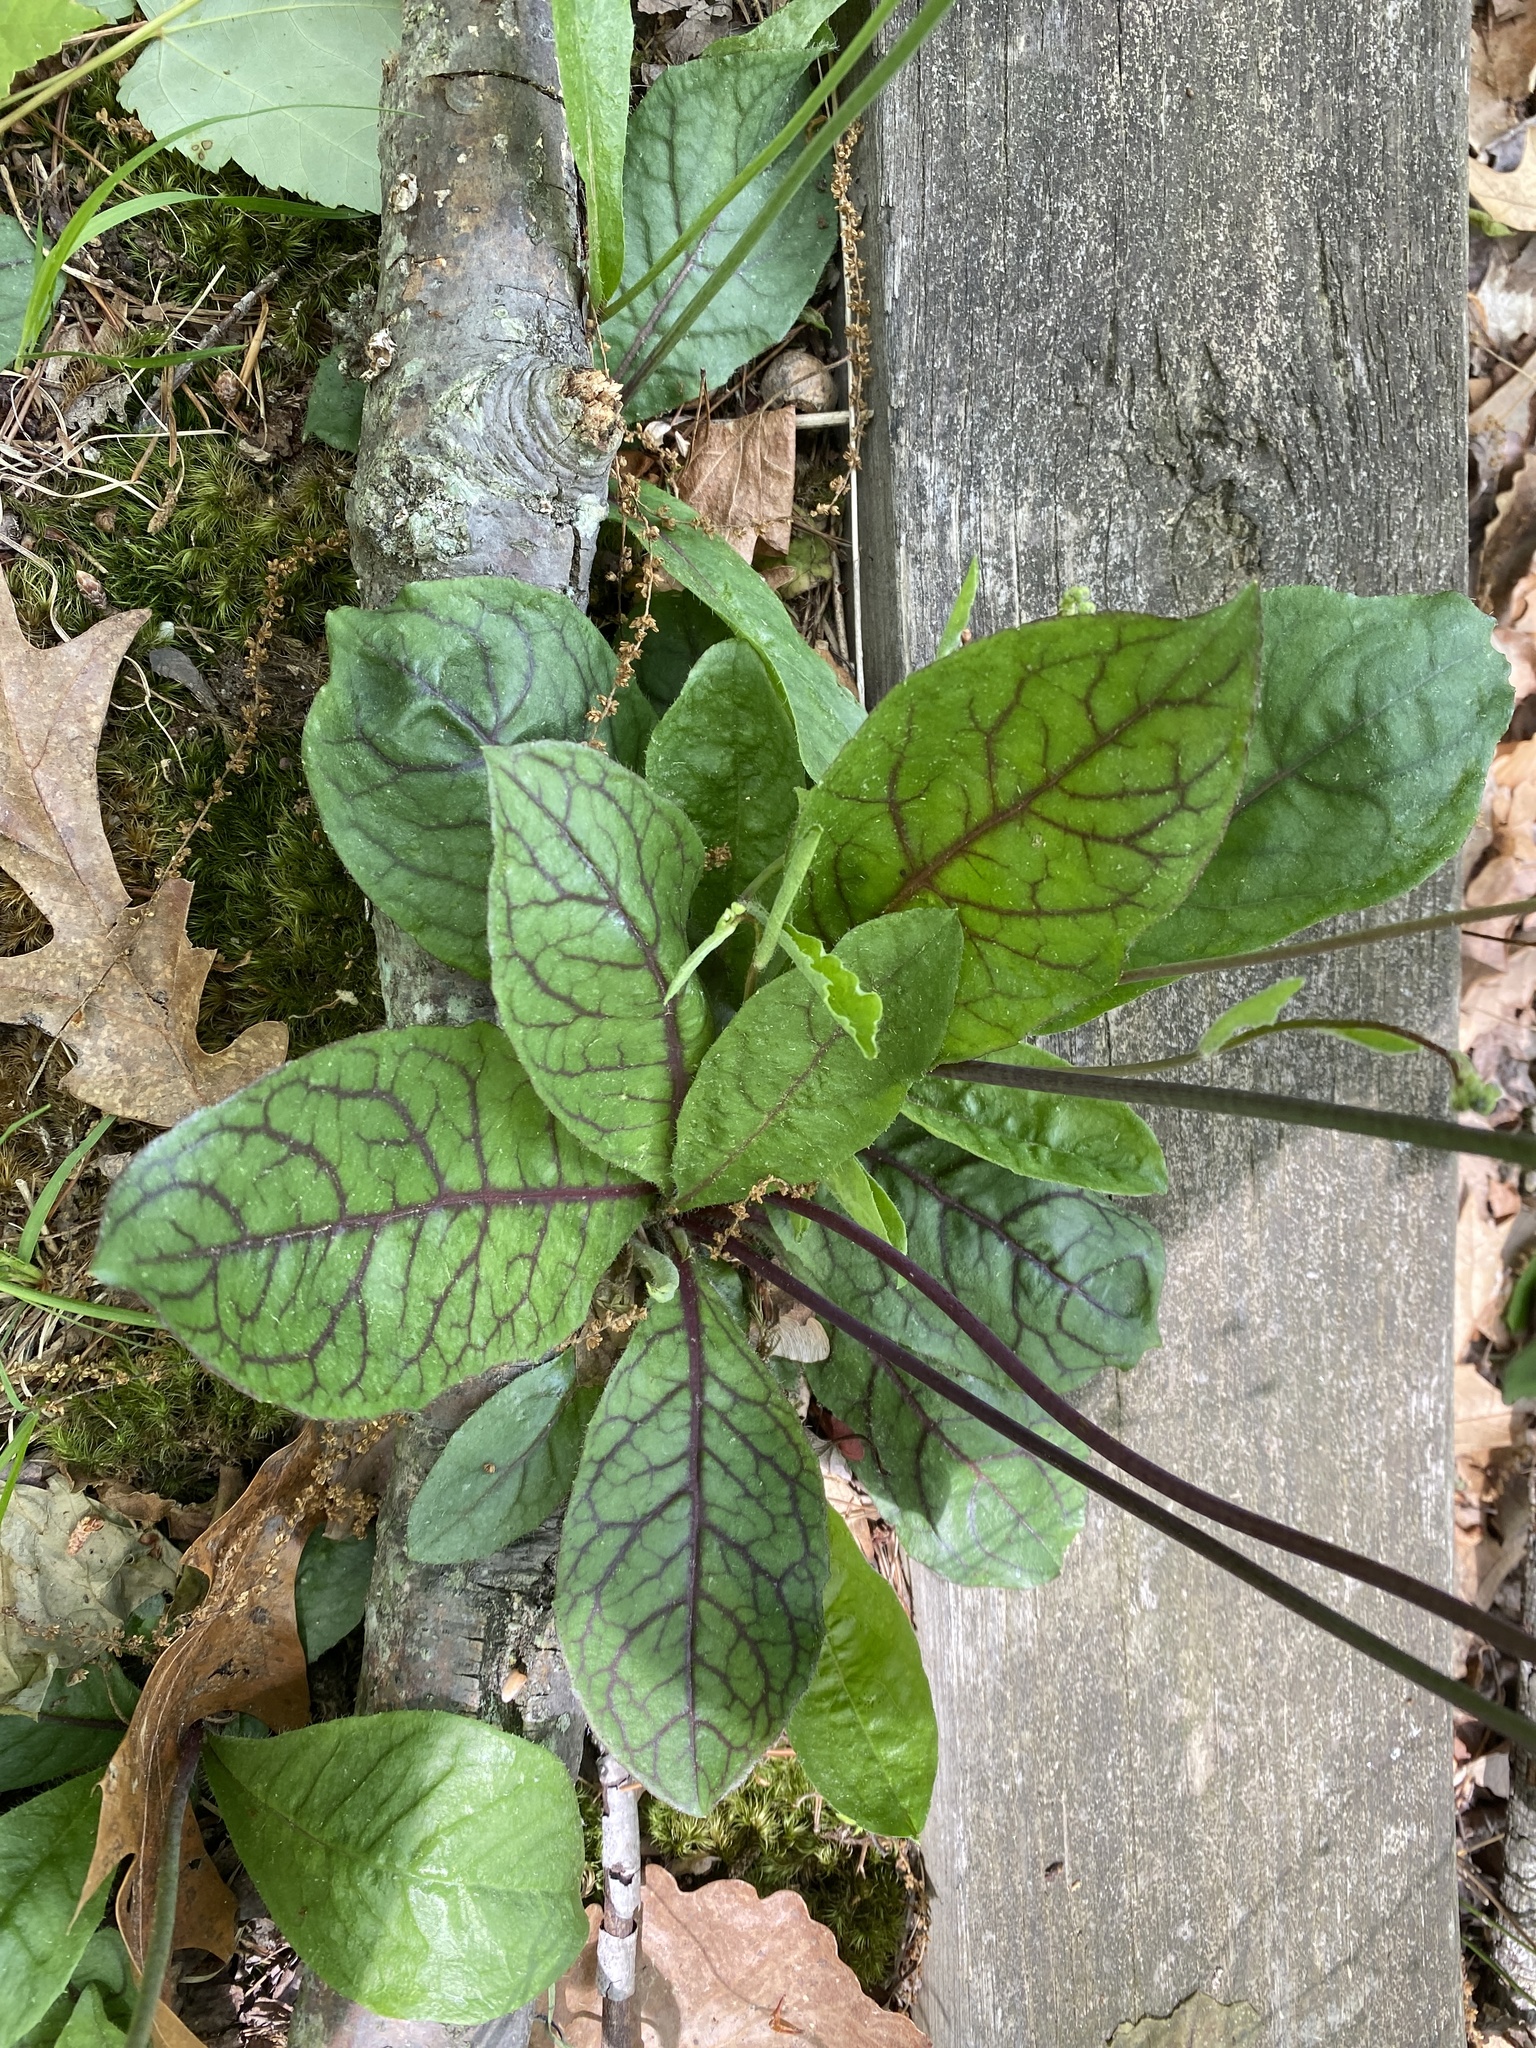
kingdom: Plantae
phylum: Tracheophyta
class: Magnoliopsida
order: Asterales
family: Asteraceae
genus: Hieracium
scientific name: Hieracium venosum
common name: Rattlesnake hawkweed
